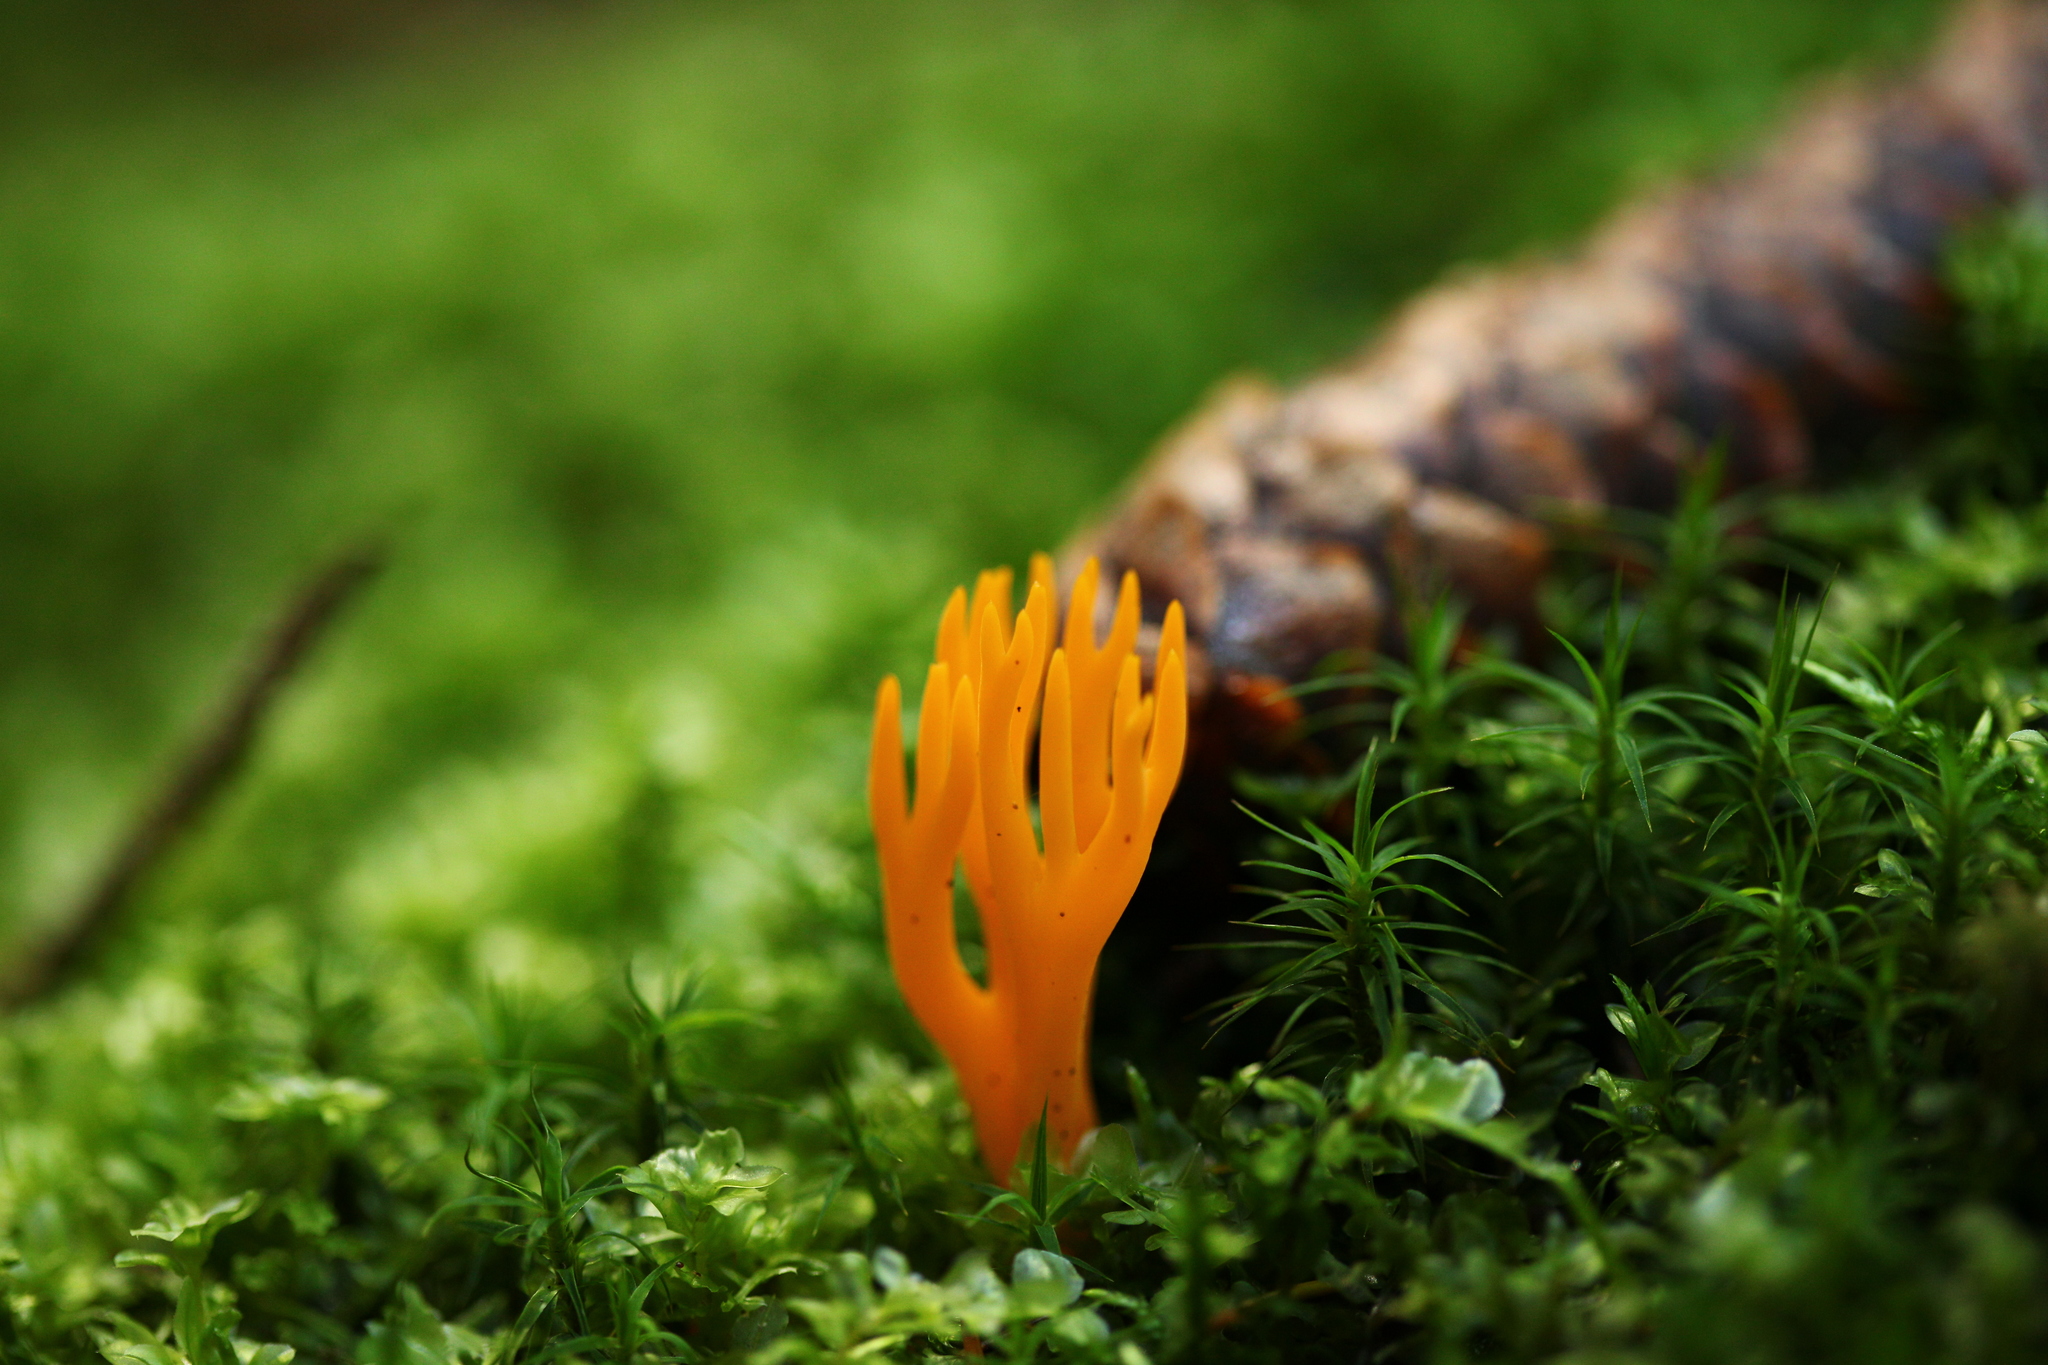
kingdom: Fungi
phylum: Basidiomycota
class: Dacrymycetes
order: Dacrymycetales
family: Dacrymycetaceae
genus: Calocera
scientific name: Calocera viscosa
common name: Yellow stagshorn
